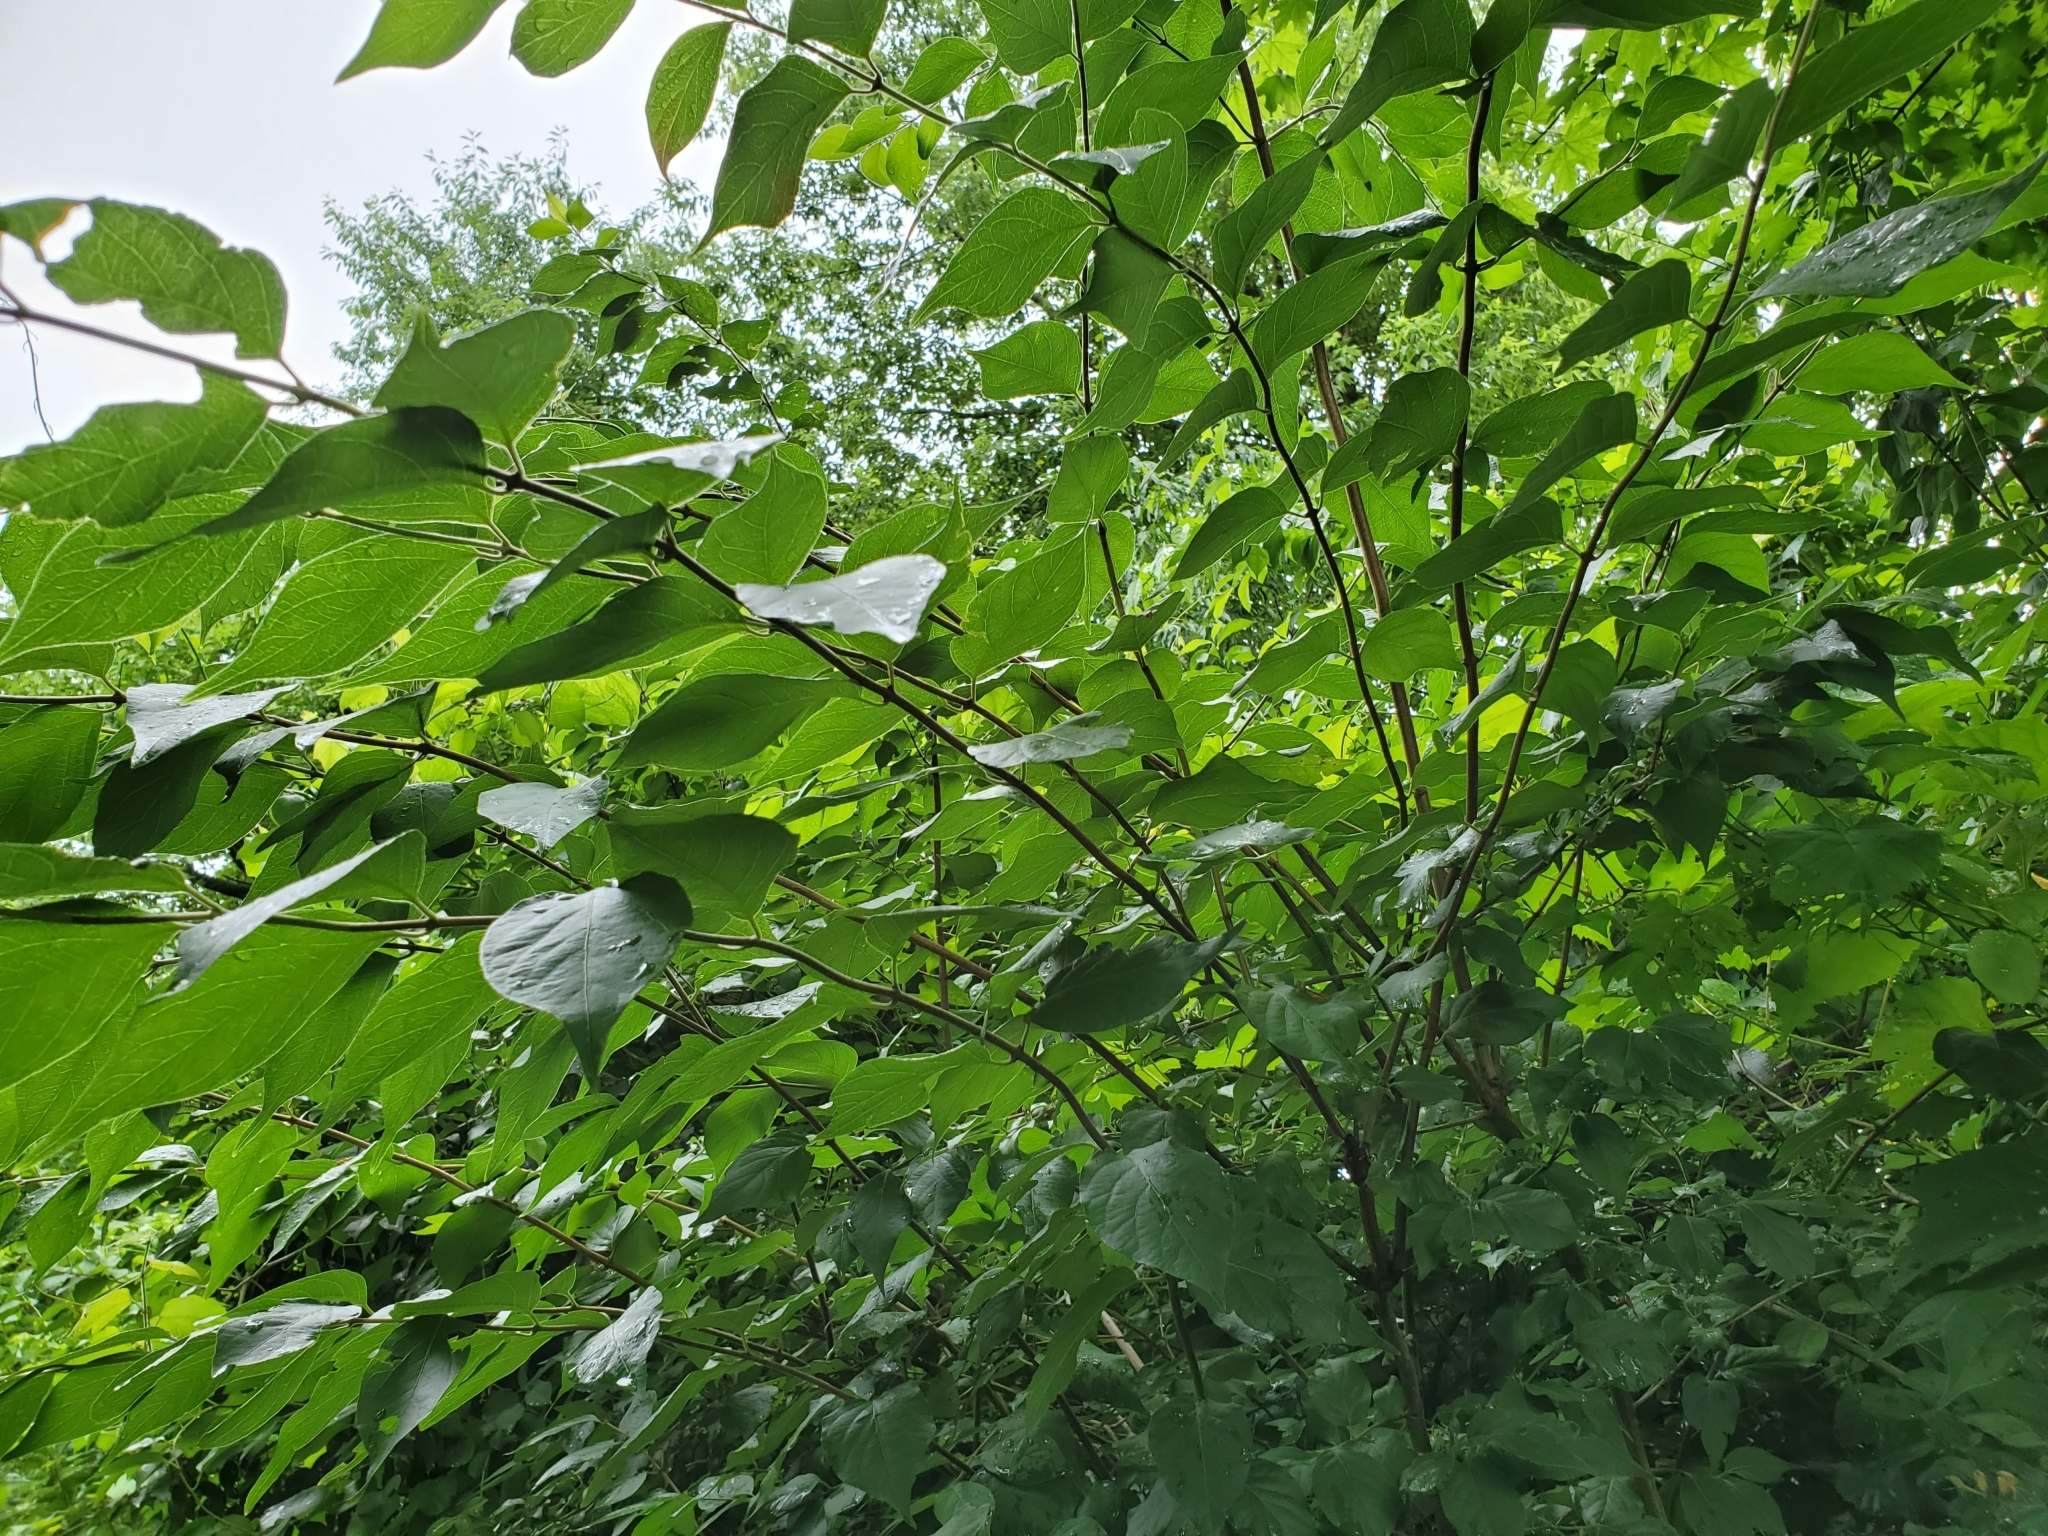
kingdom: Plantae
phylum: Tracheophyta
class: Magnoliopsida
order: Dipsacales
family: Caprifoliaceae
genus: Lonicera
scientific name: Lonicera maackii
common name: Amur honeysuckle
